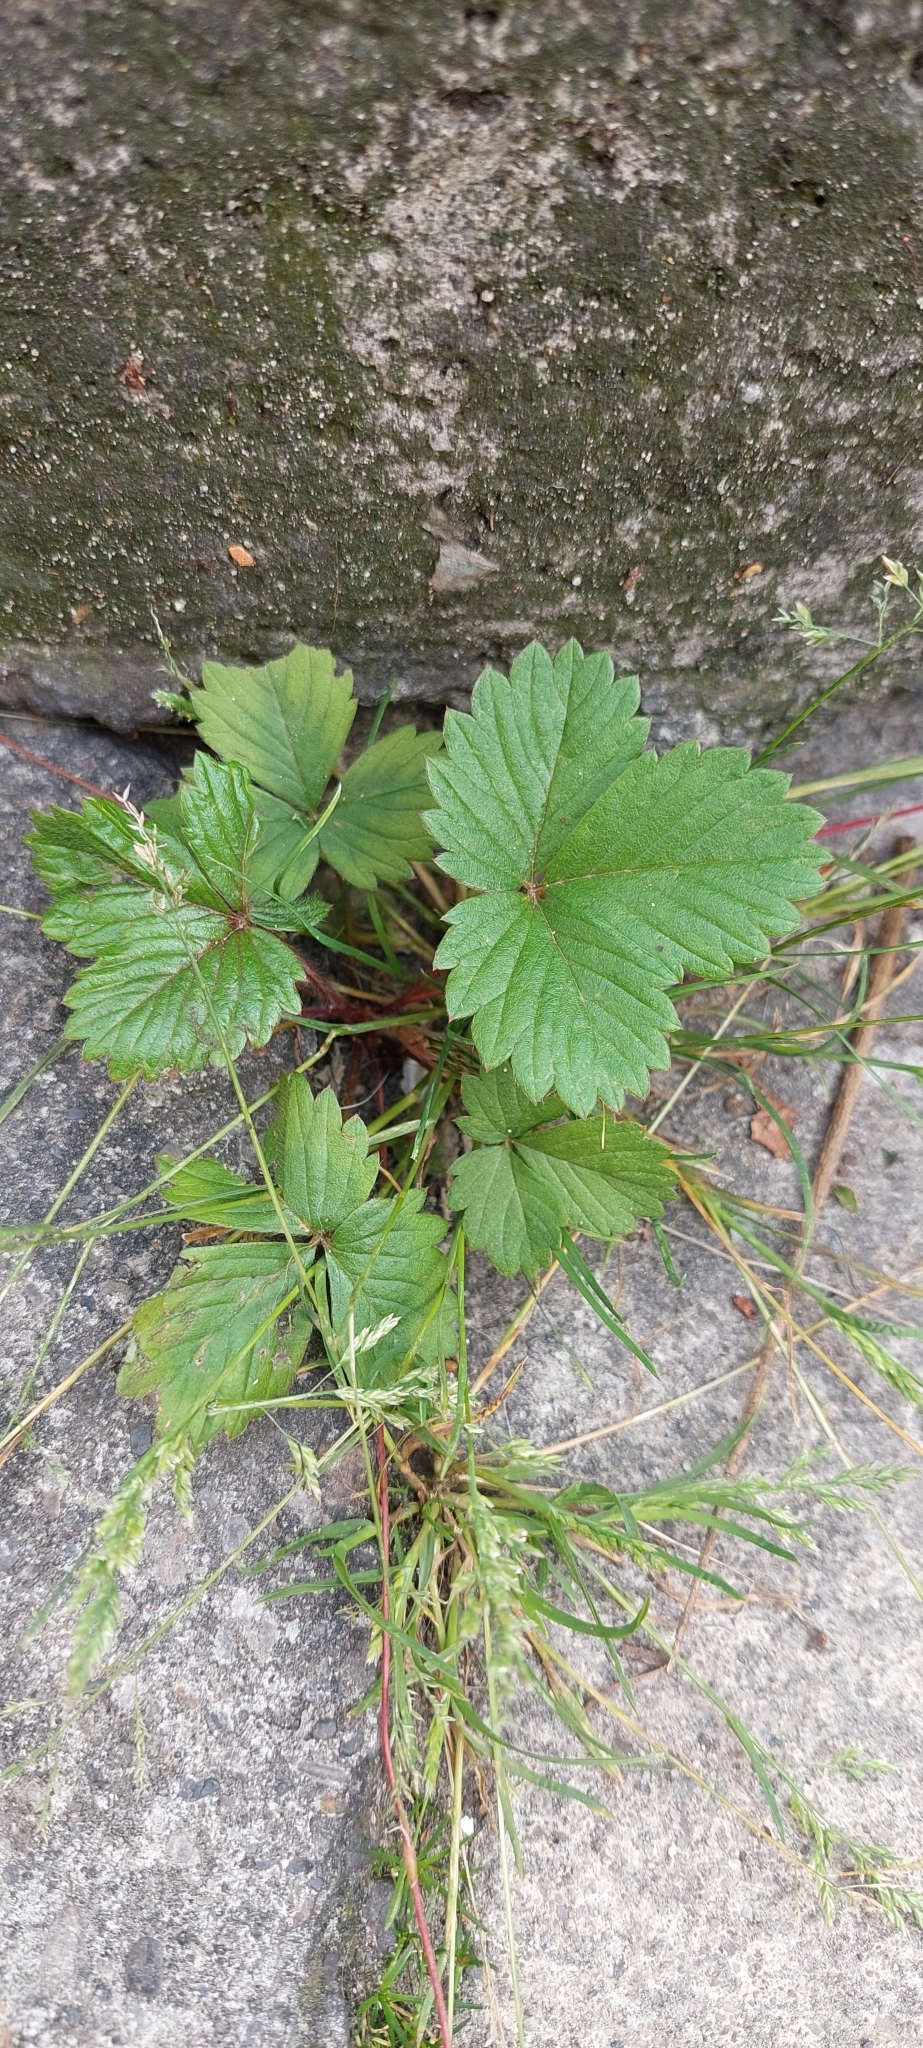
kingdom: Plantae
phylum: Tracheophyta
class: Magnoliopsida
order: Rosales
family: Rosaceae
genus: Fragaria
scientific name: Fragaria vesca
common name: Wild strawberry
